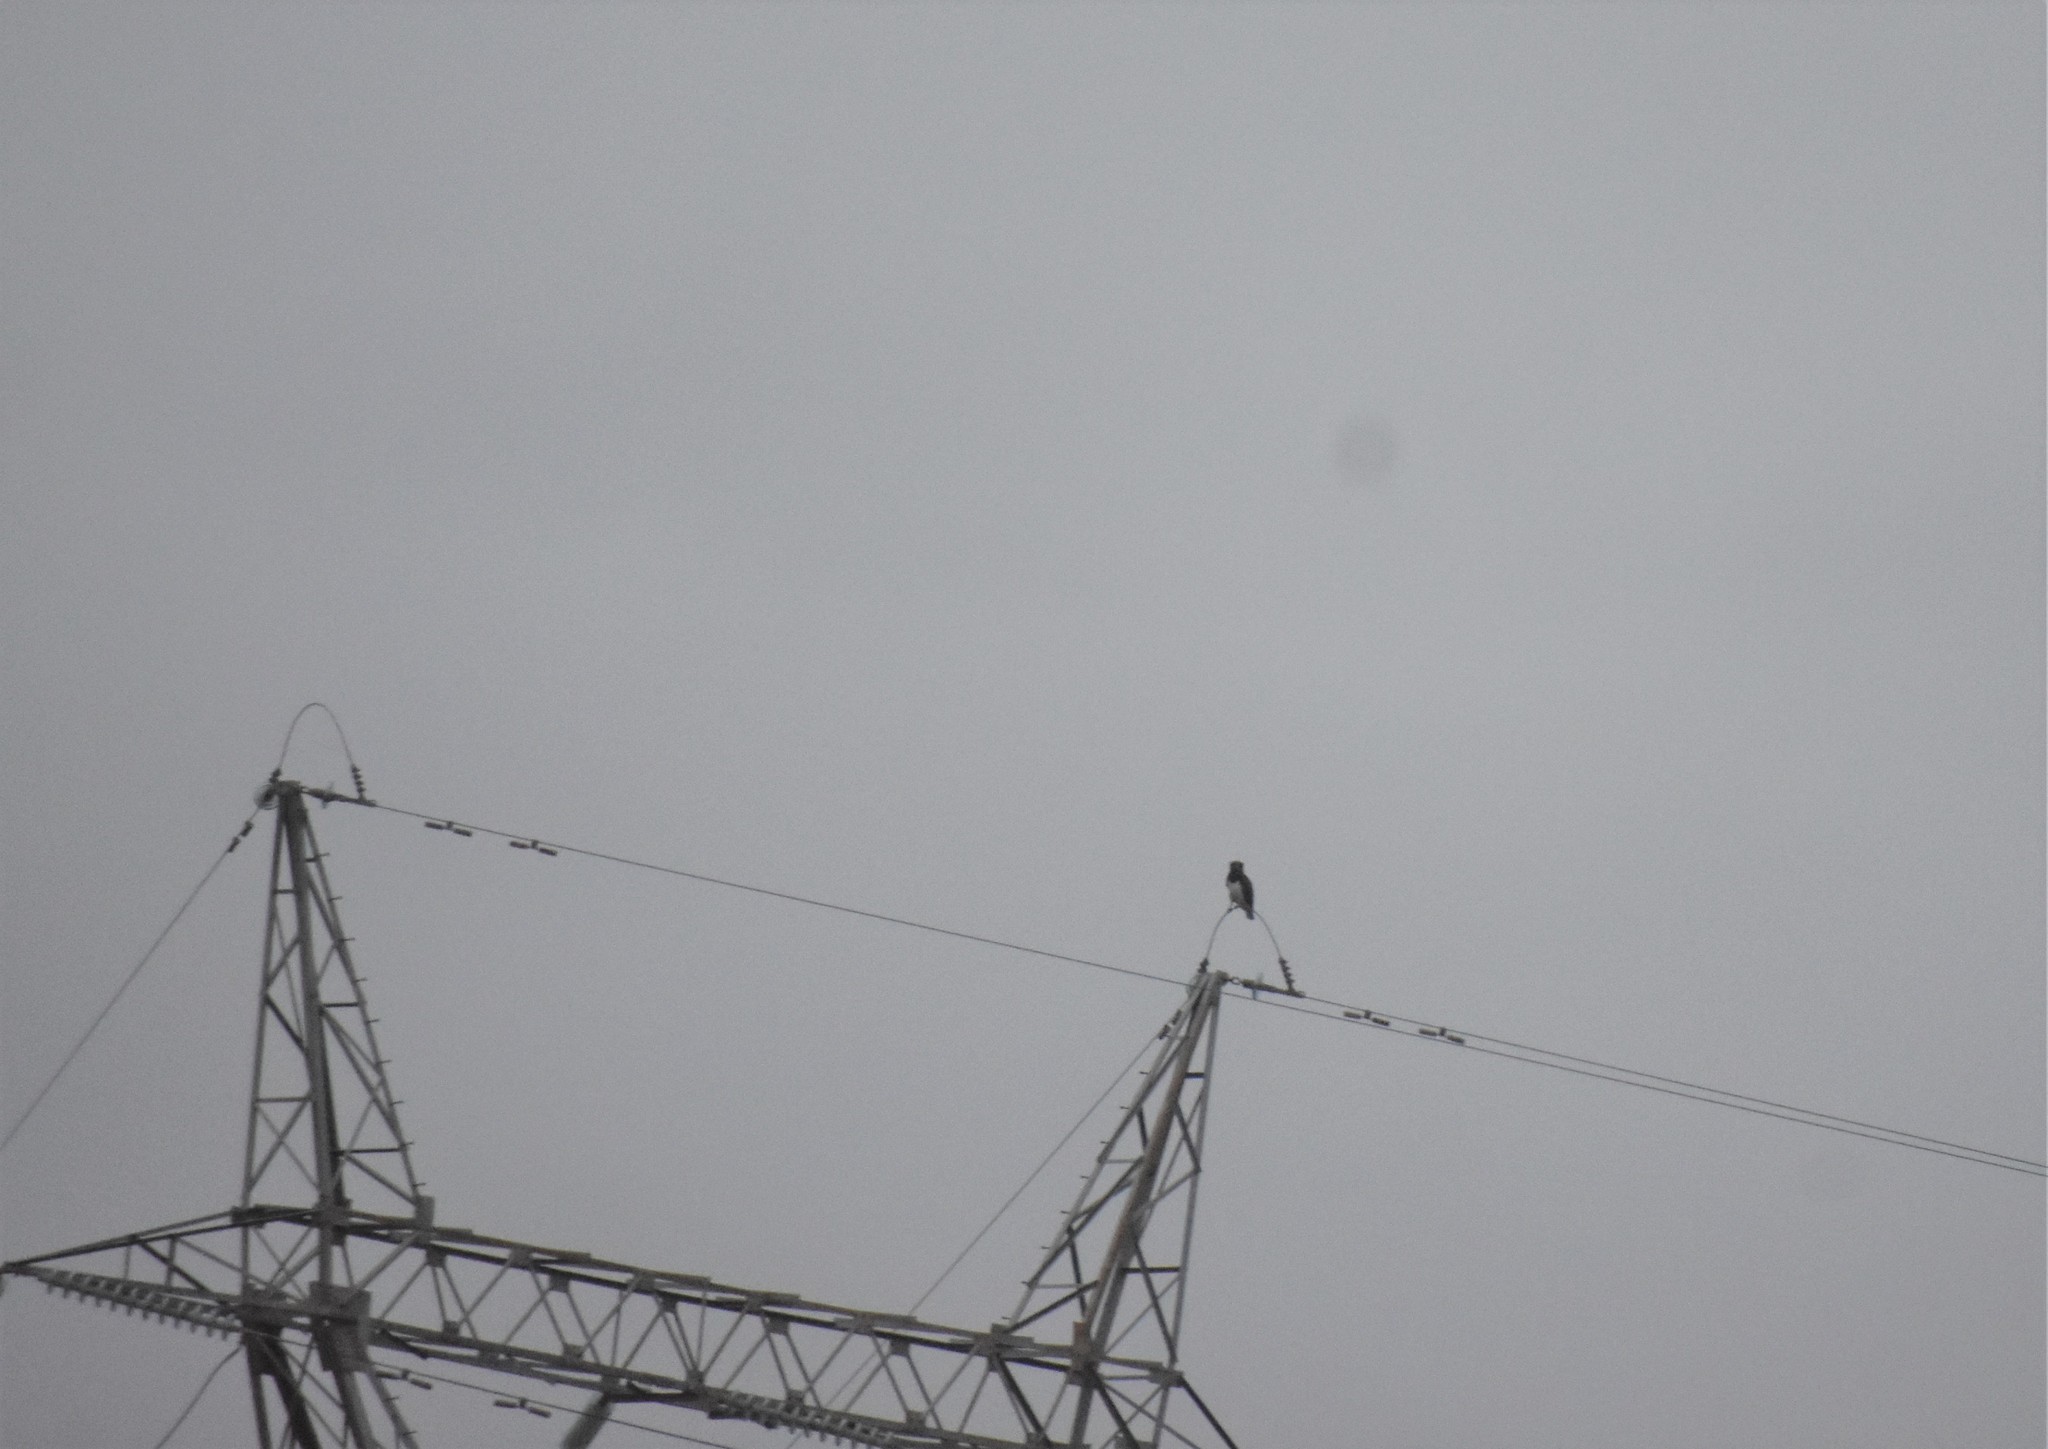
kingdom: Animalia
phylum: Chordata
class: Aves
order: Accipitriformes
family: Accipitridae
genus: Circaetus
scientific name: Circaetus pectoralis
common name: Black-chested snake eagle
